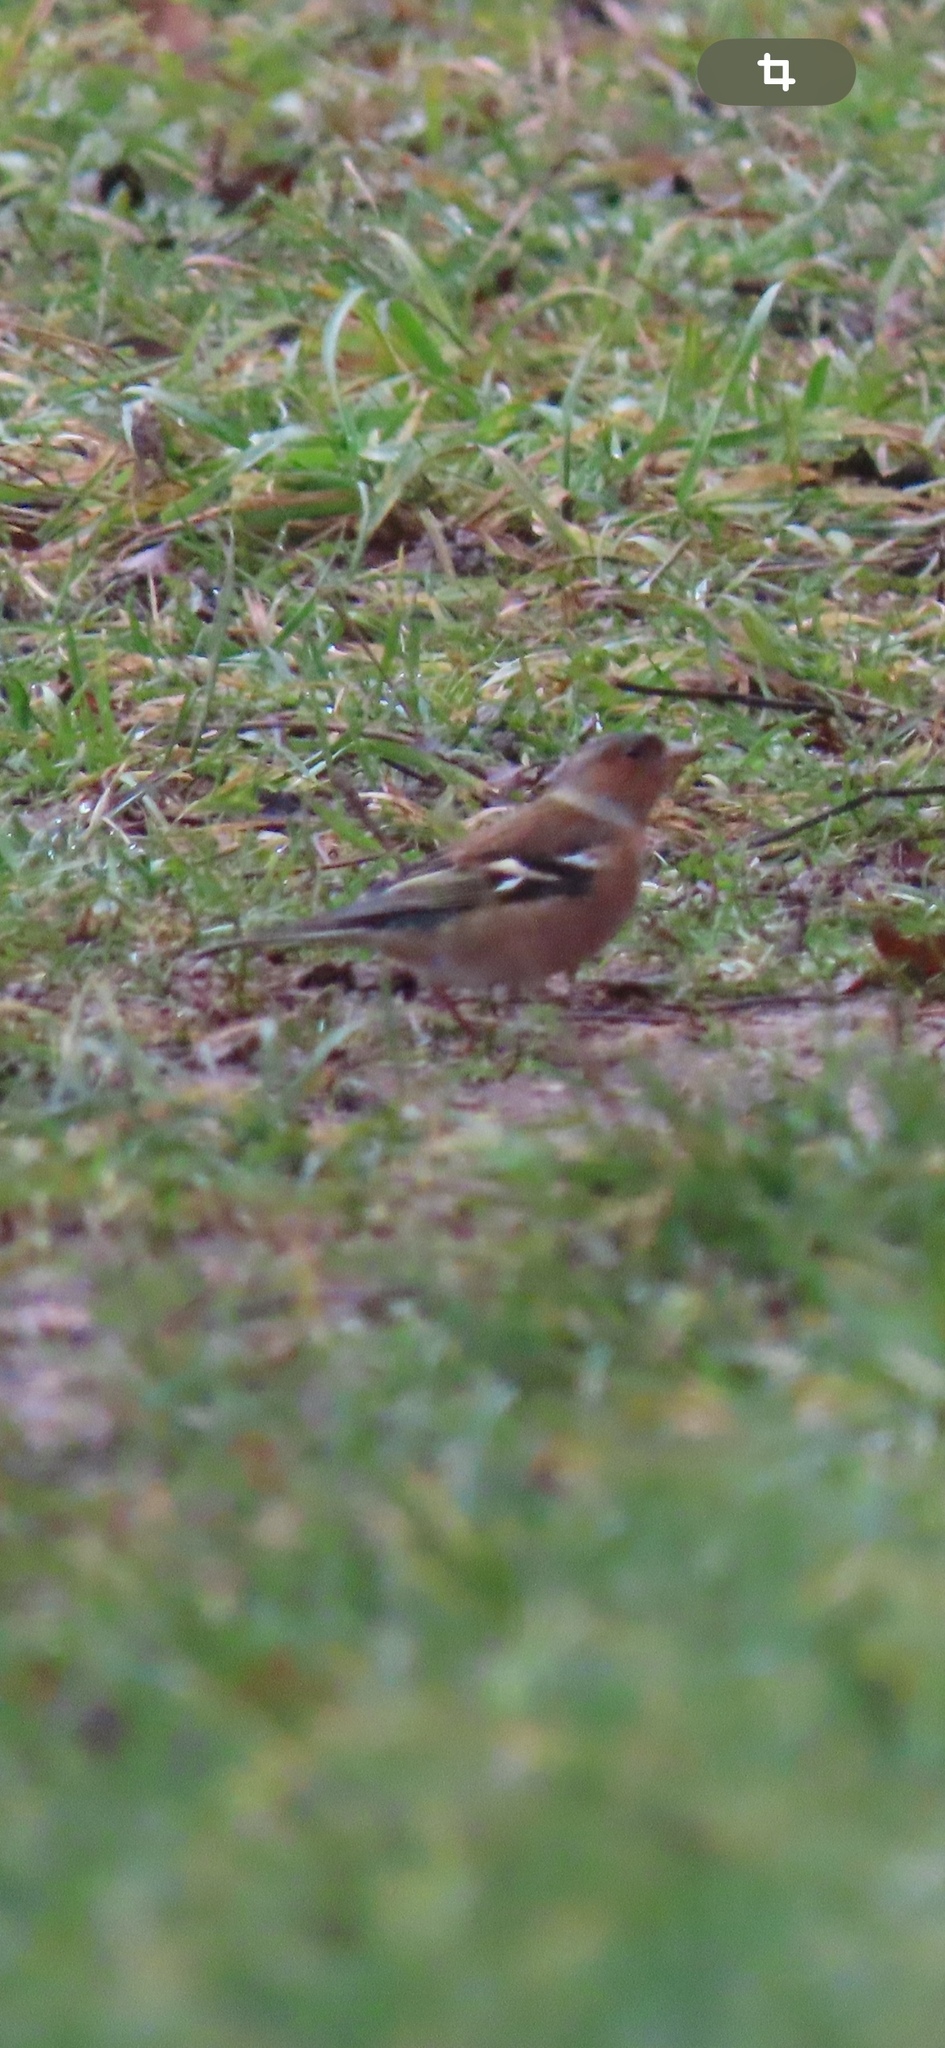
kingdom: Animalia
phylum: Chordata
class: Aves
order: Passeriformes
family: Fringillidae
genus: Fringilla
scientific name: Fringilla coelebs
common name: Common chaffinch
